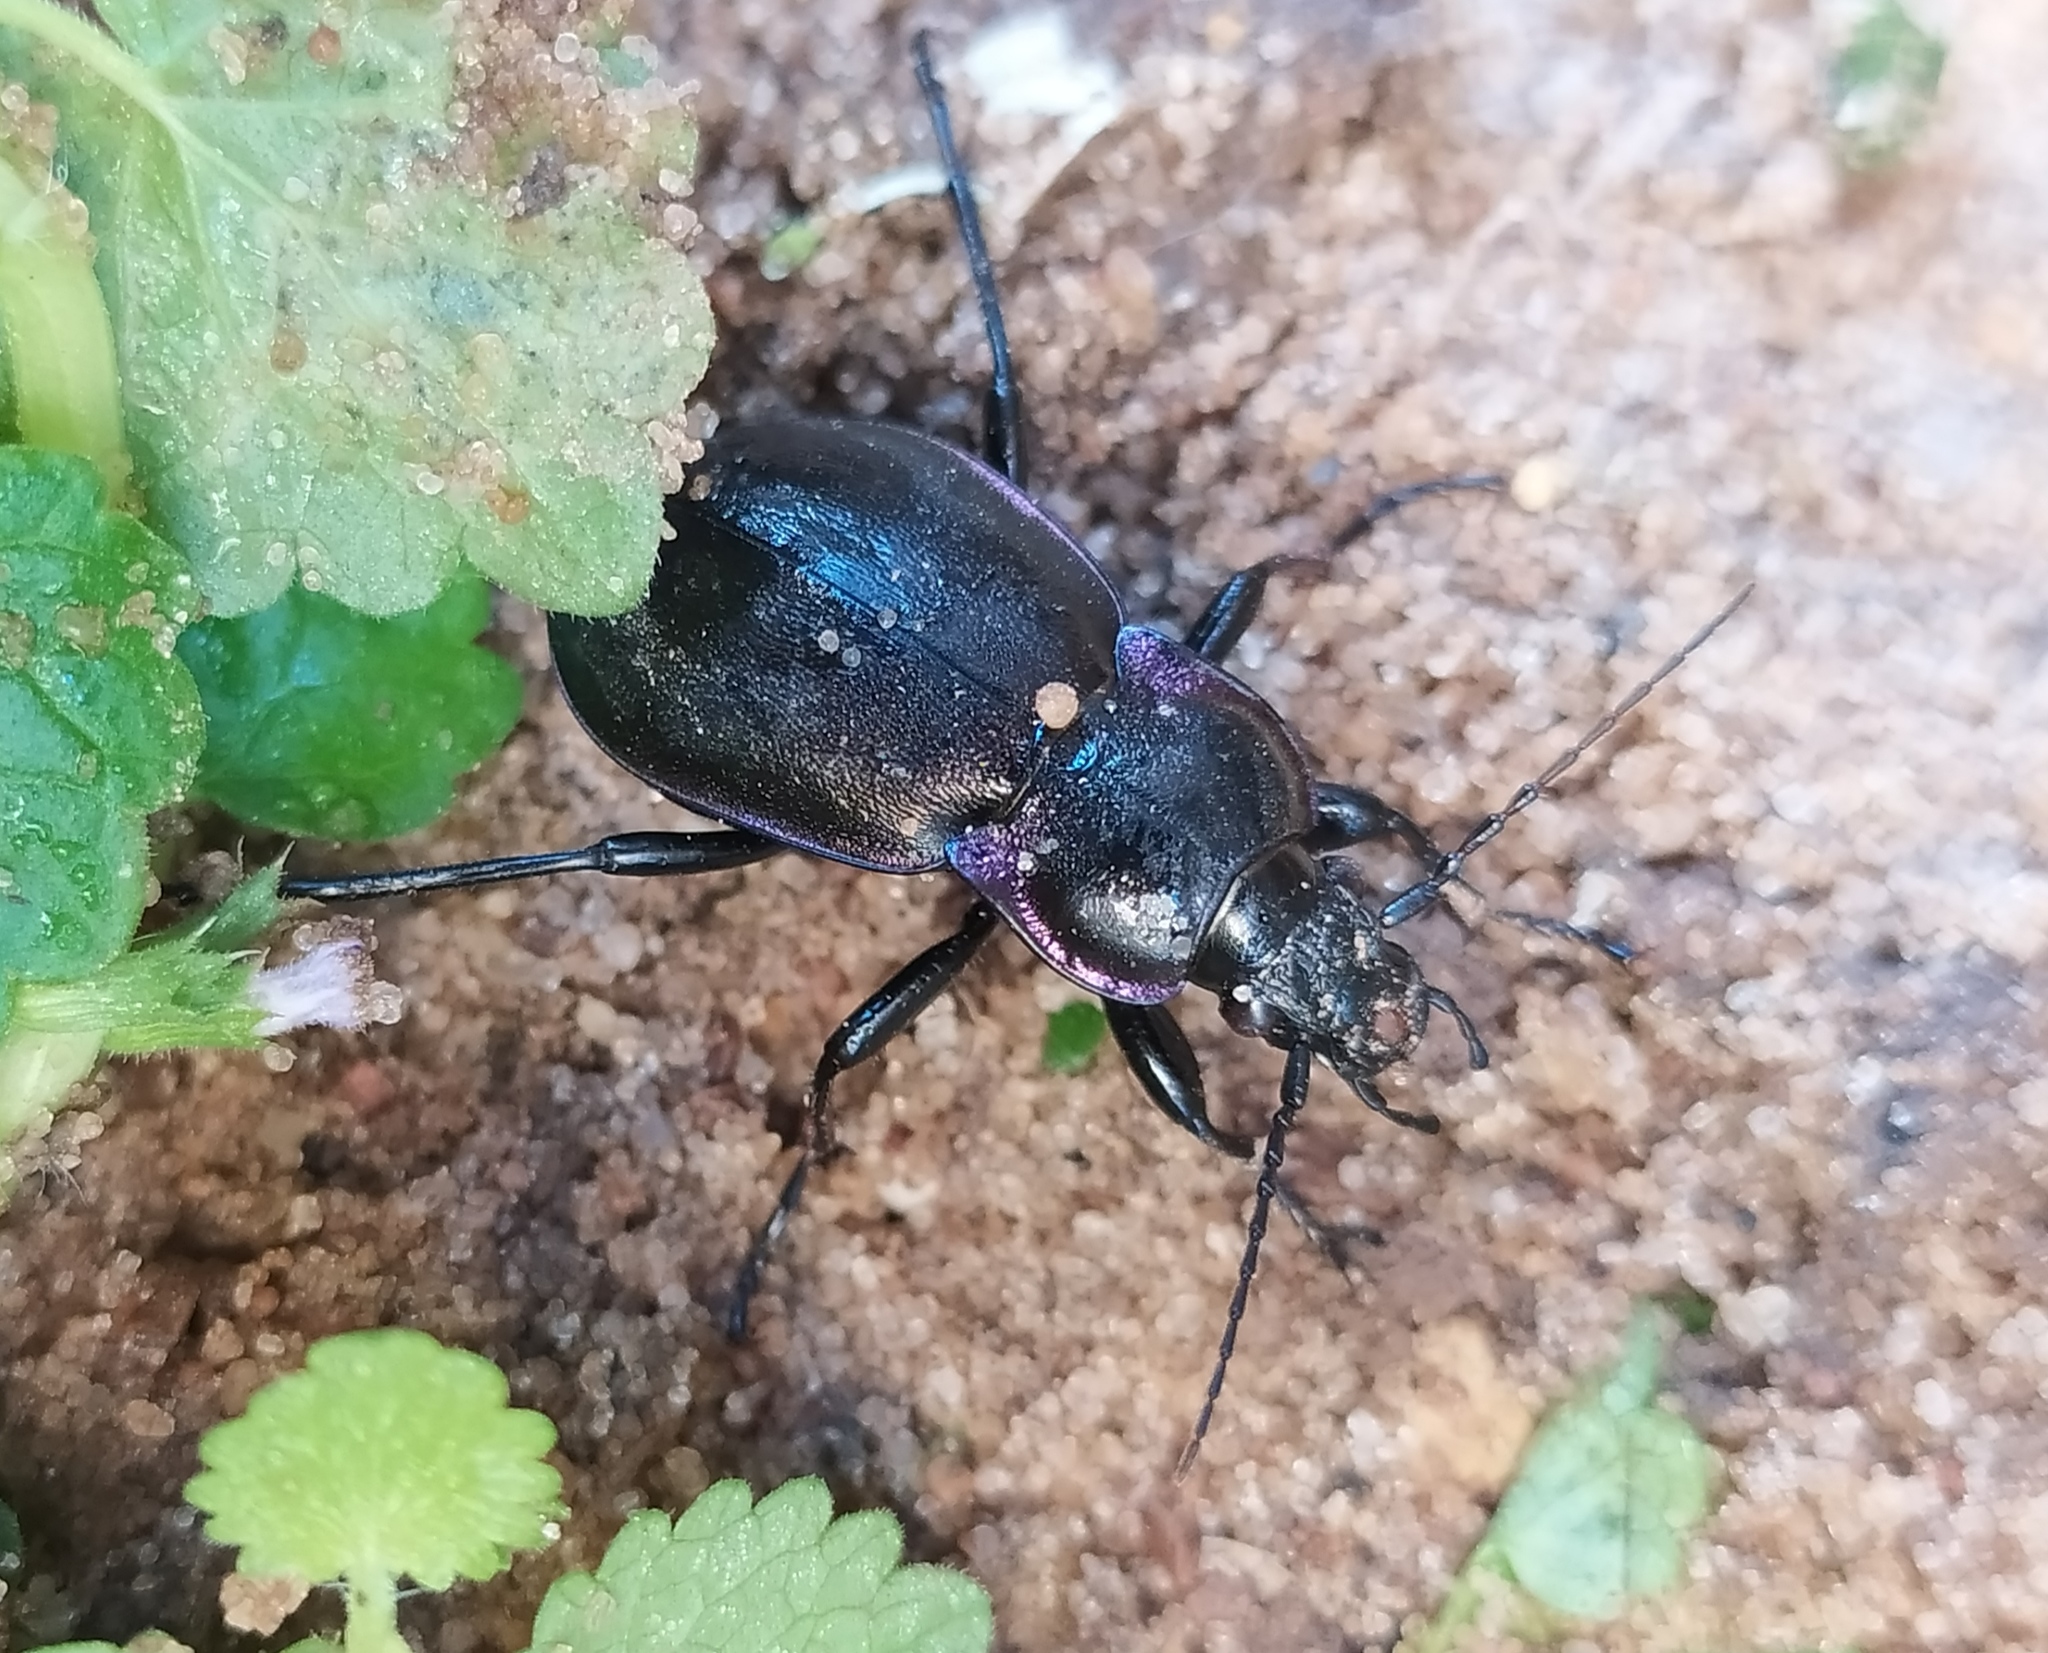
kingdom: Animalia
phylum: Arthropoda
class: Insecta
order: Coleoptera
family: Carabidae
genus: Carabus
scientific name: Carabus nemoralis
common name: European ground beetle
